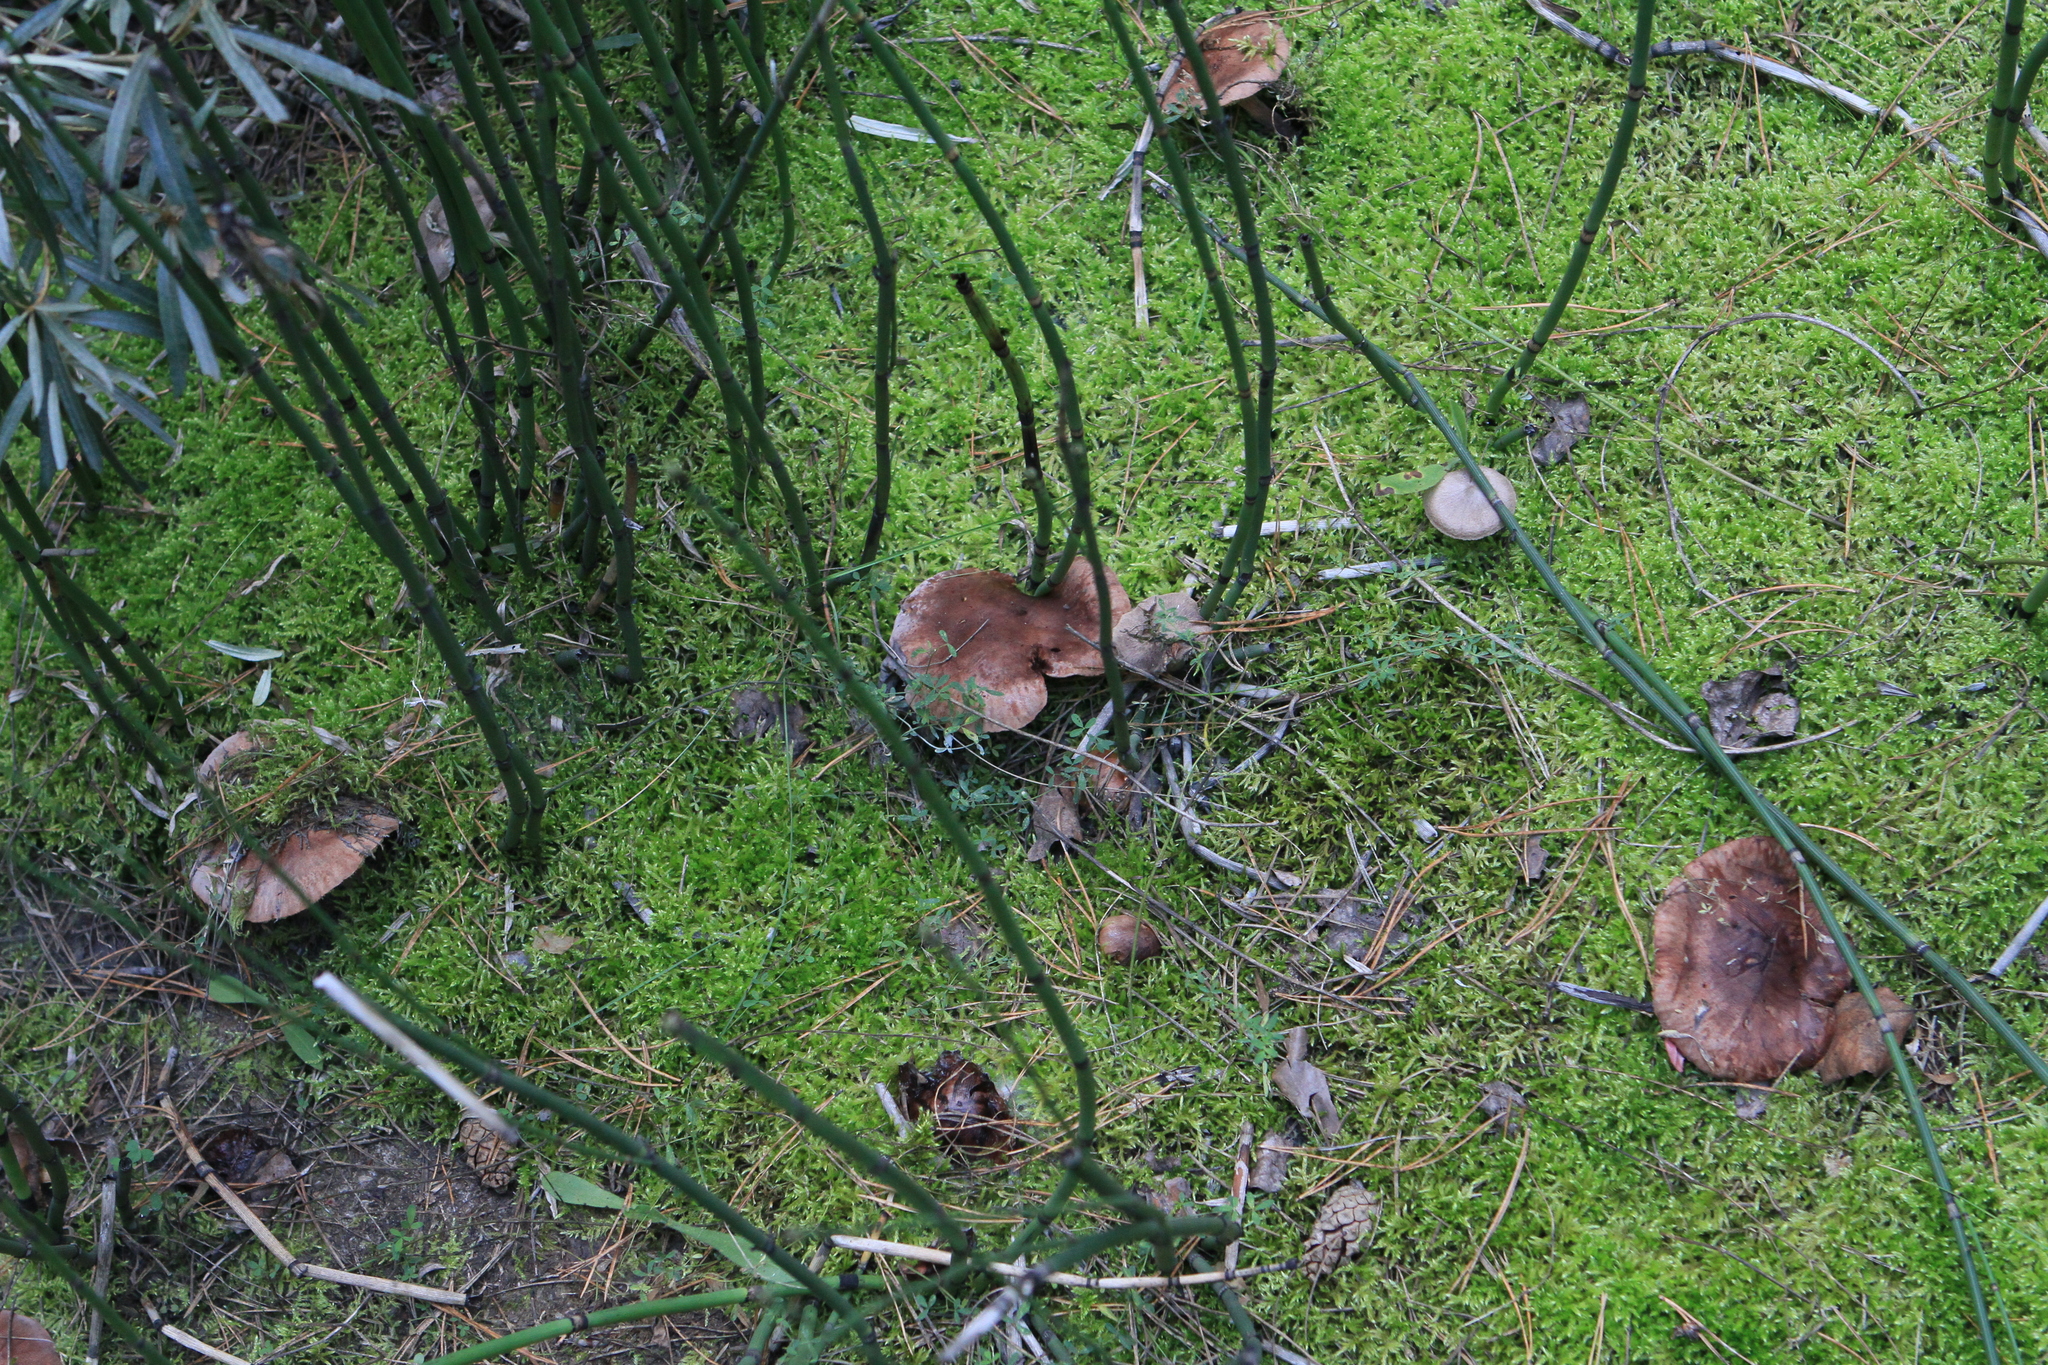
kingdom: Fungi
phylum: Basidiomycota
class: Agaricomycetes
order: Russulales
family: Russulaceae
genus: Lactarius
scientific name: Lactarius deliciosus
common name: Saffron milk-cap
